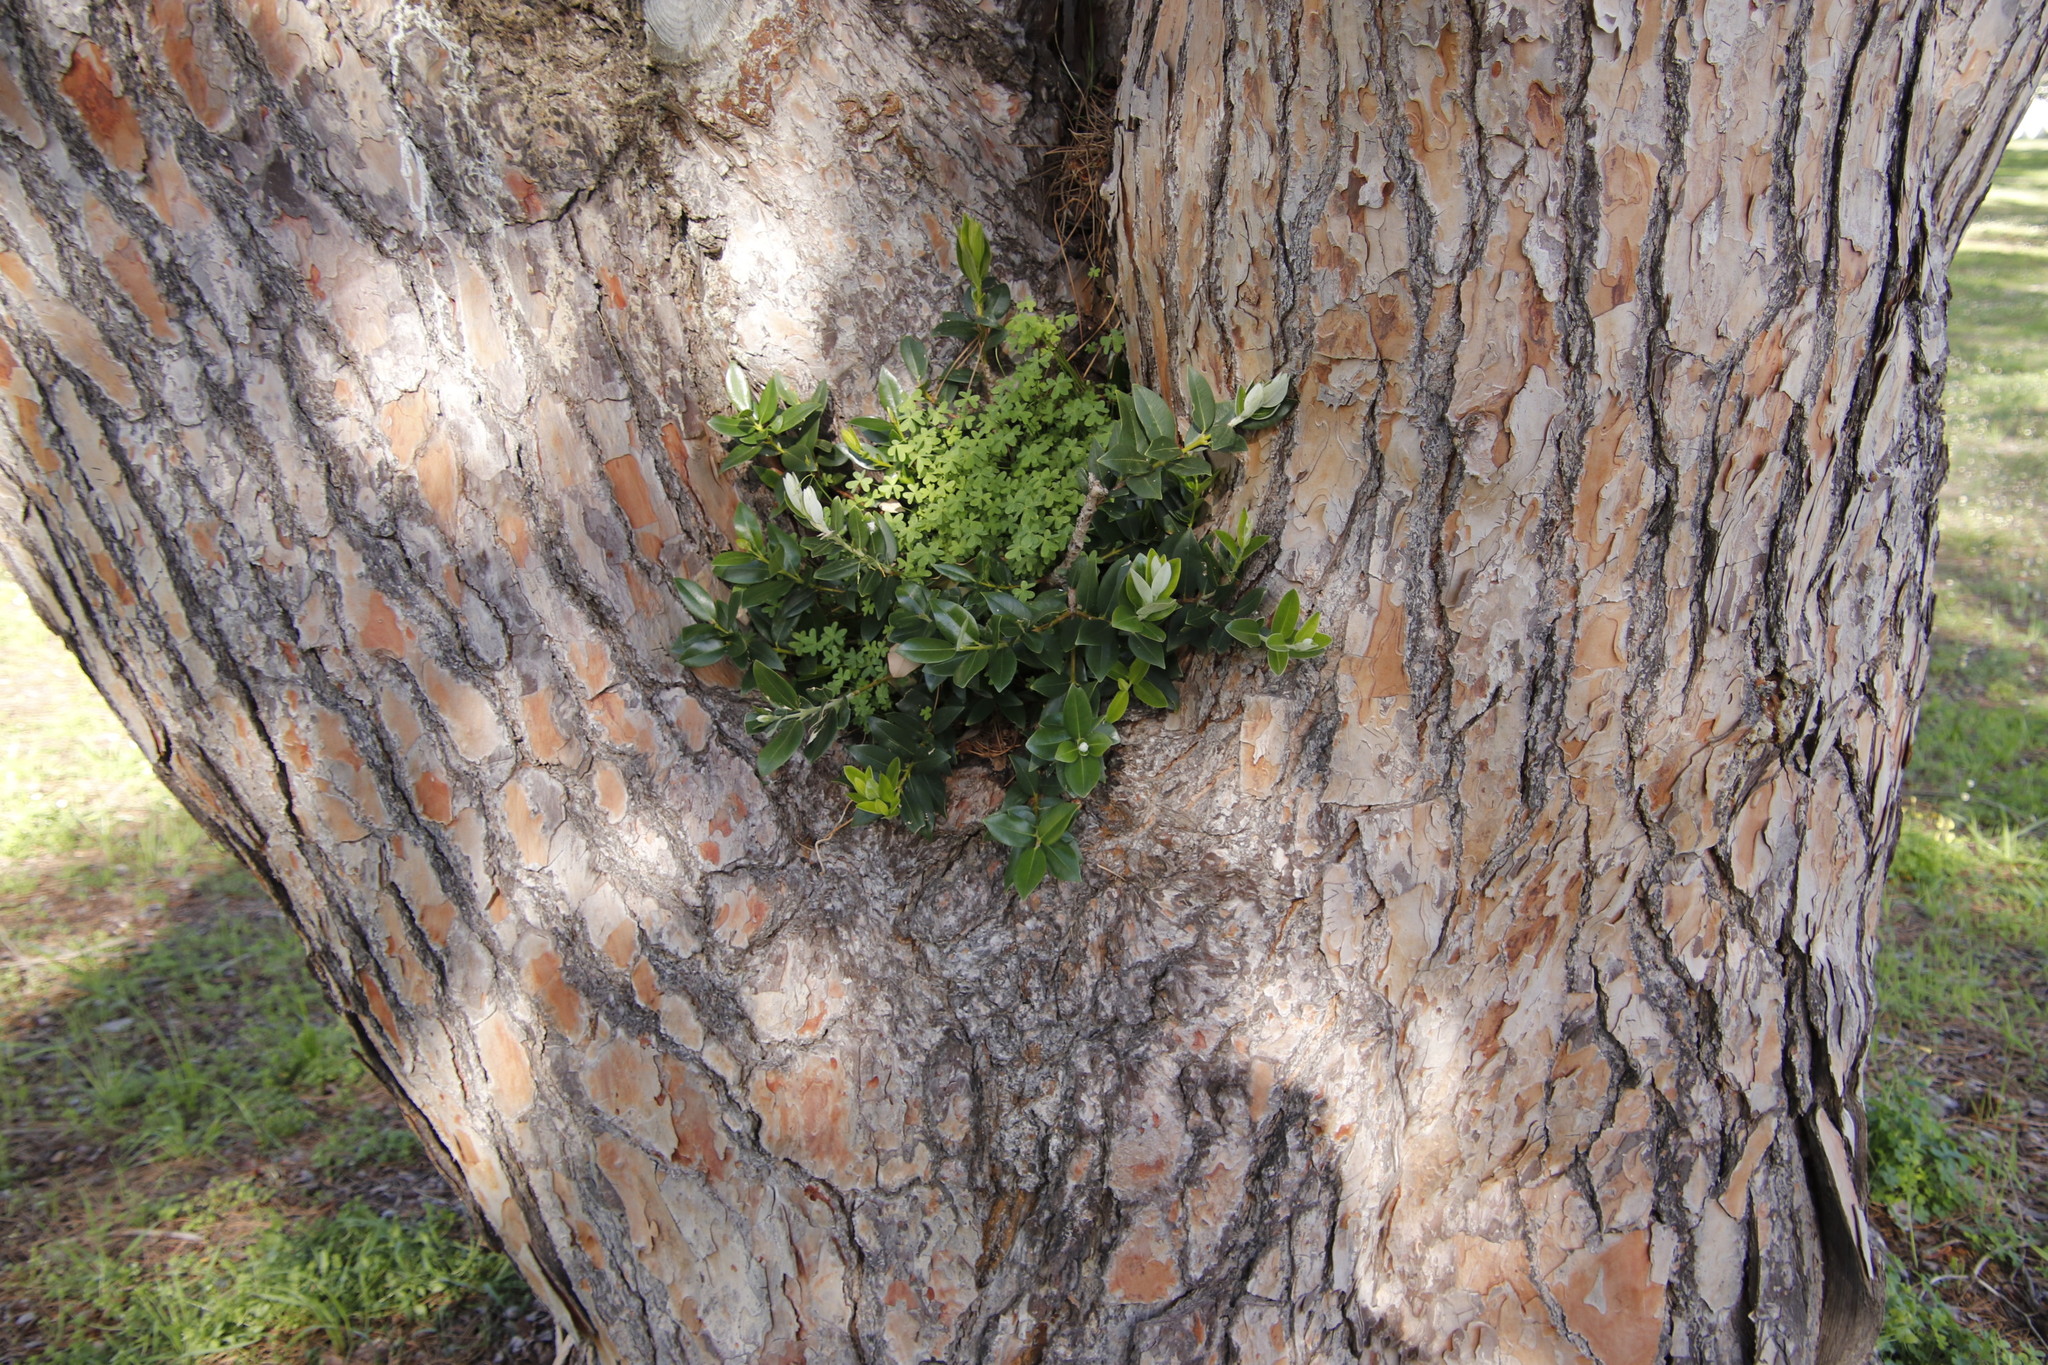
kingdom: Plantae
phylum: Tracheophyta
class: Magnoliopsida
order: Oxalidales
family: Oxalidaceae
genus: Oxalis
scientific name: Oxalis pes-caprae
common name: Bermuda-buttercup
